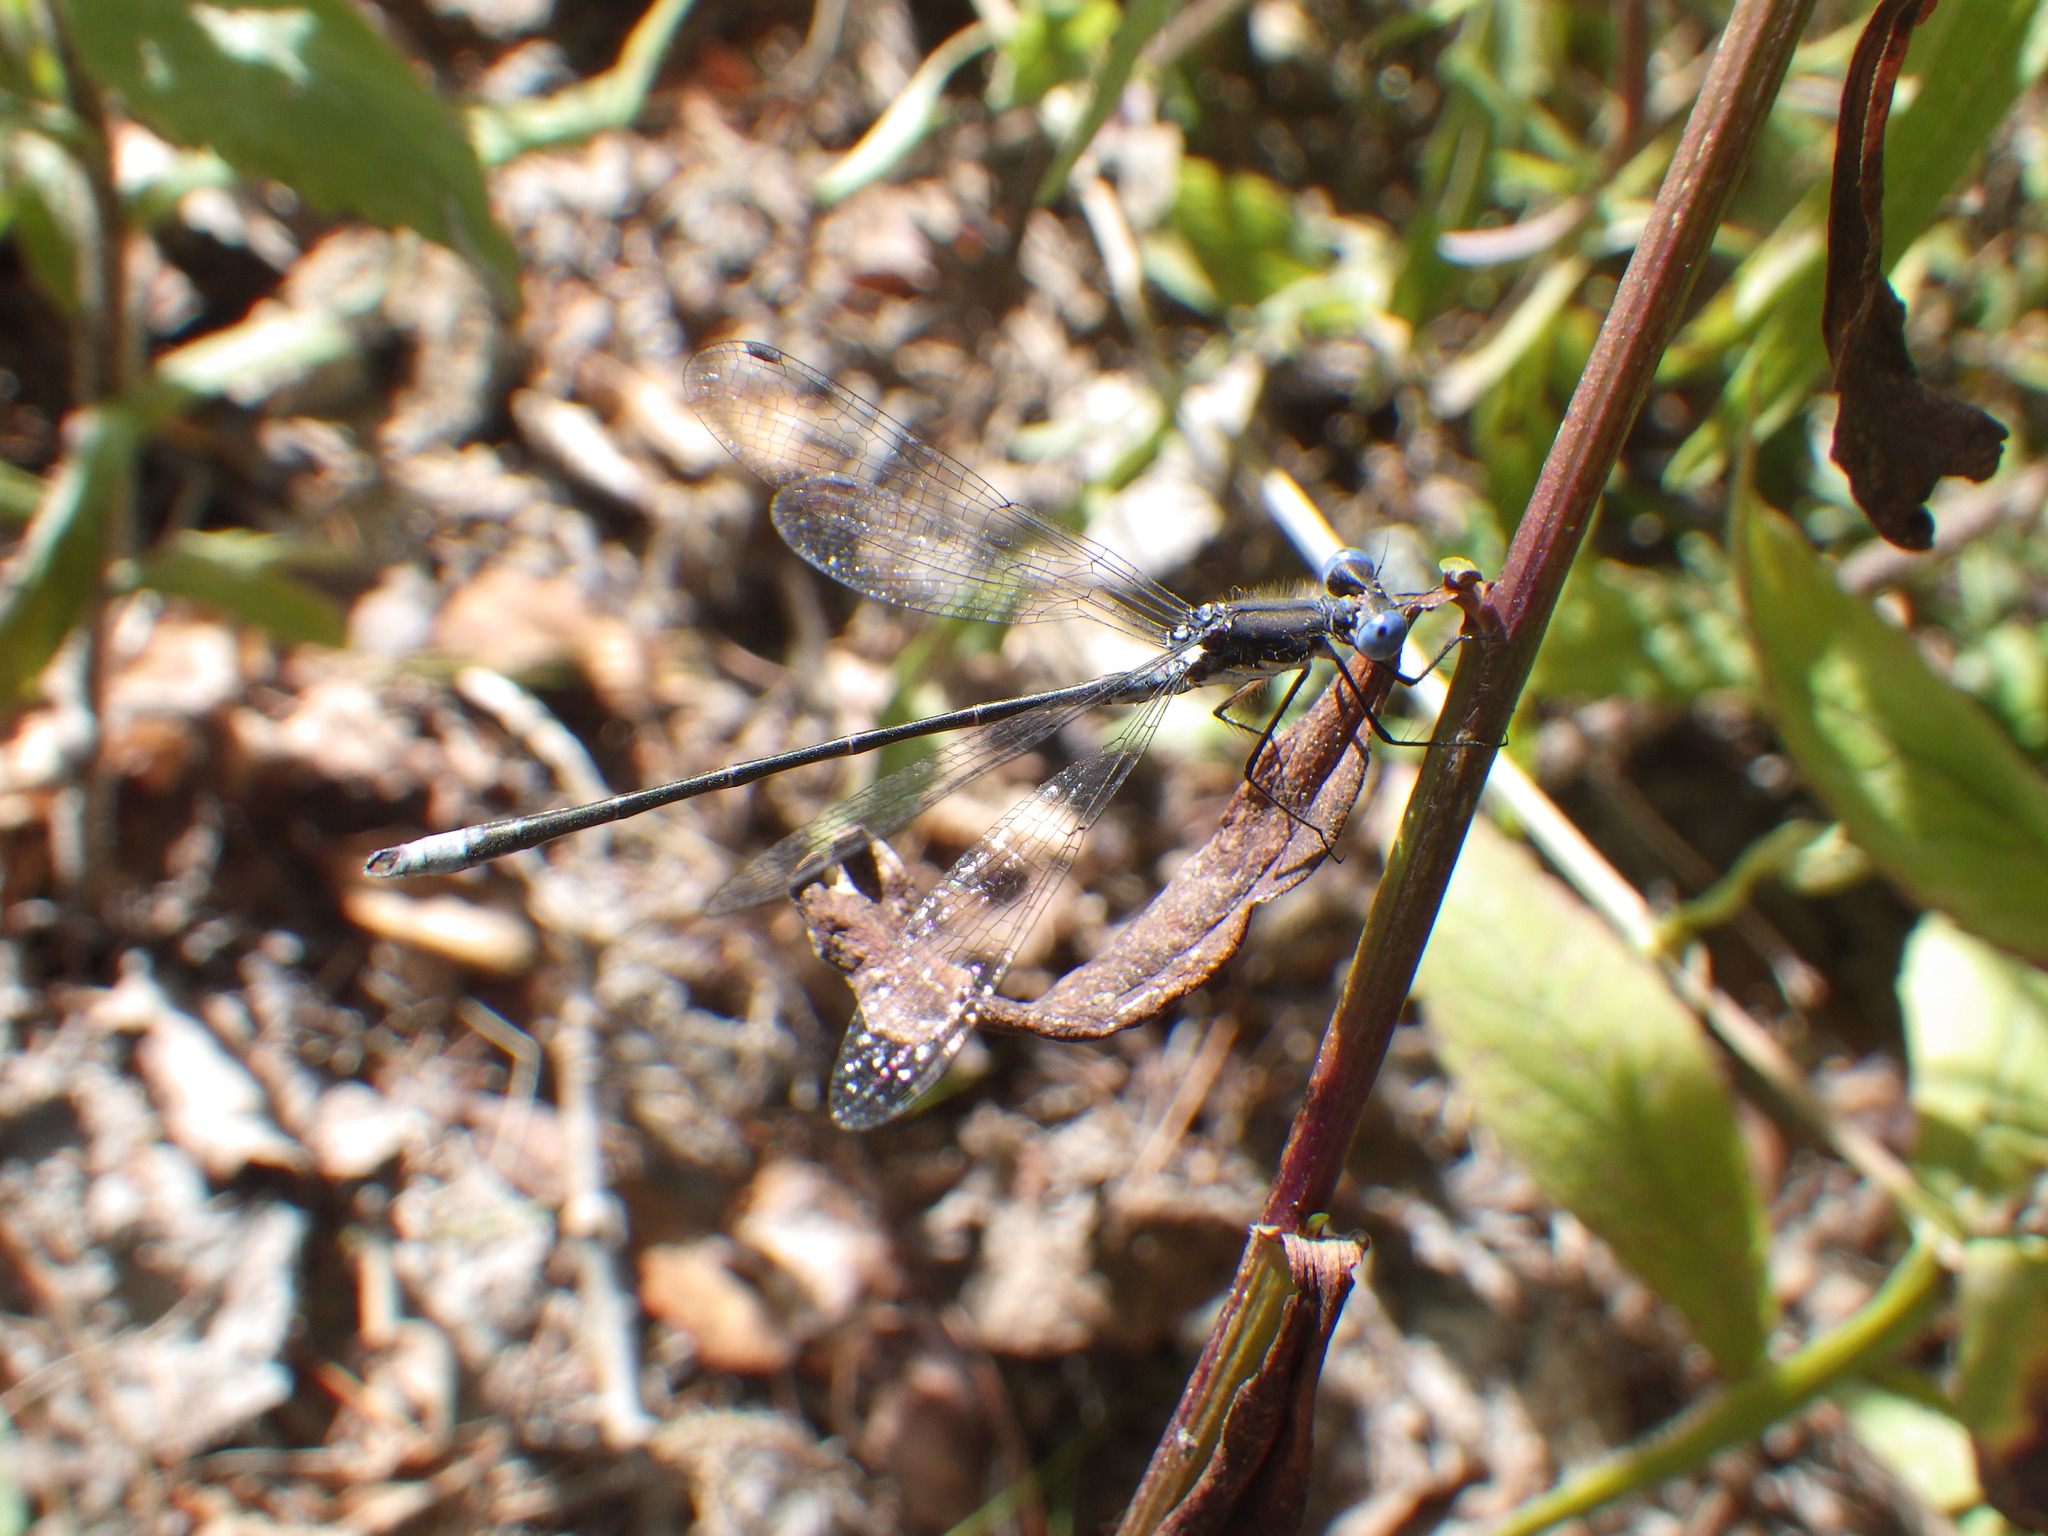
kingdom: Animalia
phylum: Arthropoda
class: Insecta
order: Odonata
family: Lestidae
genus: Lestes
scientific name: Lestes congener
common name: Spotted spreadwing
